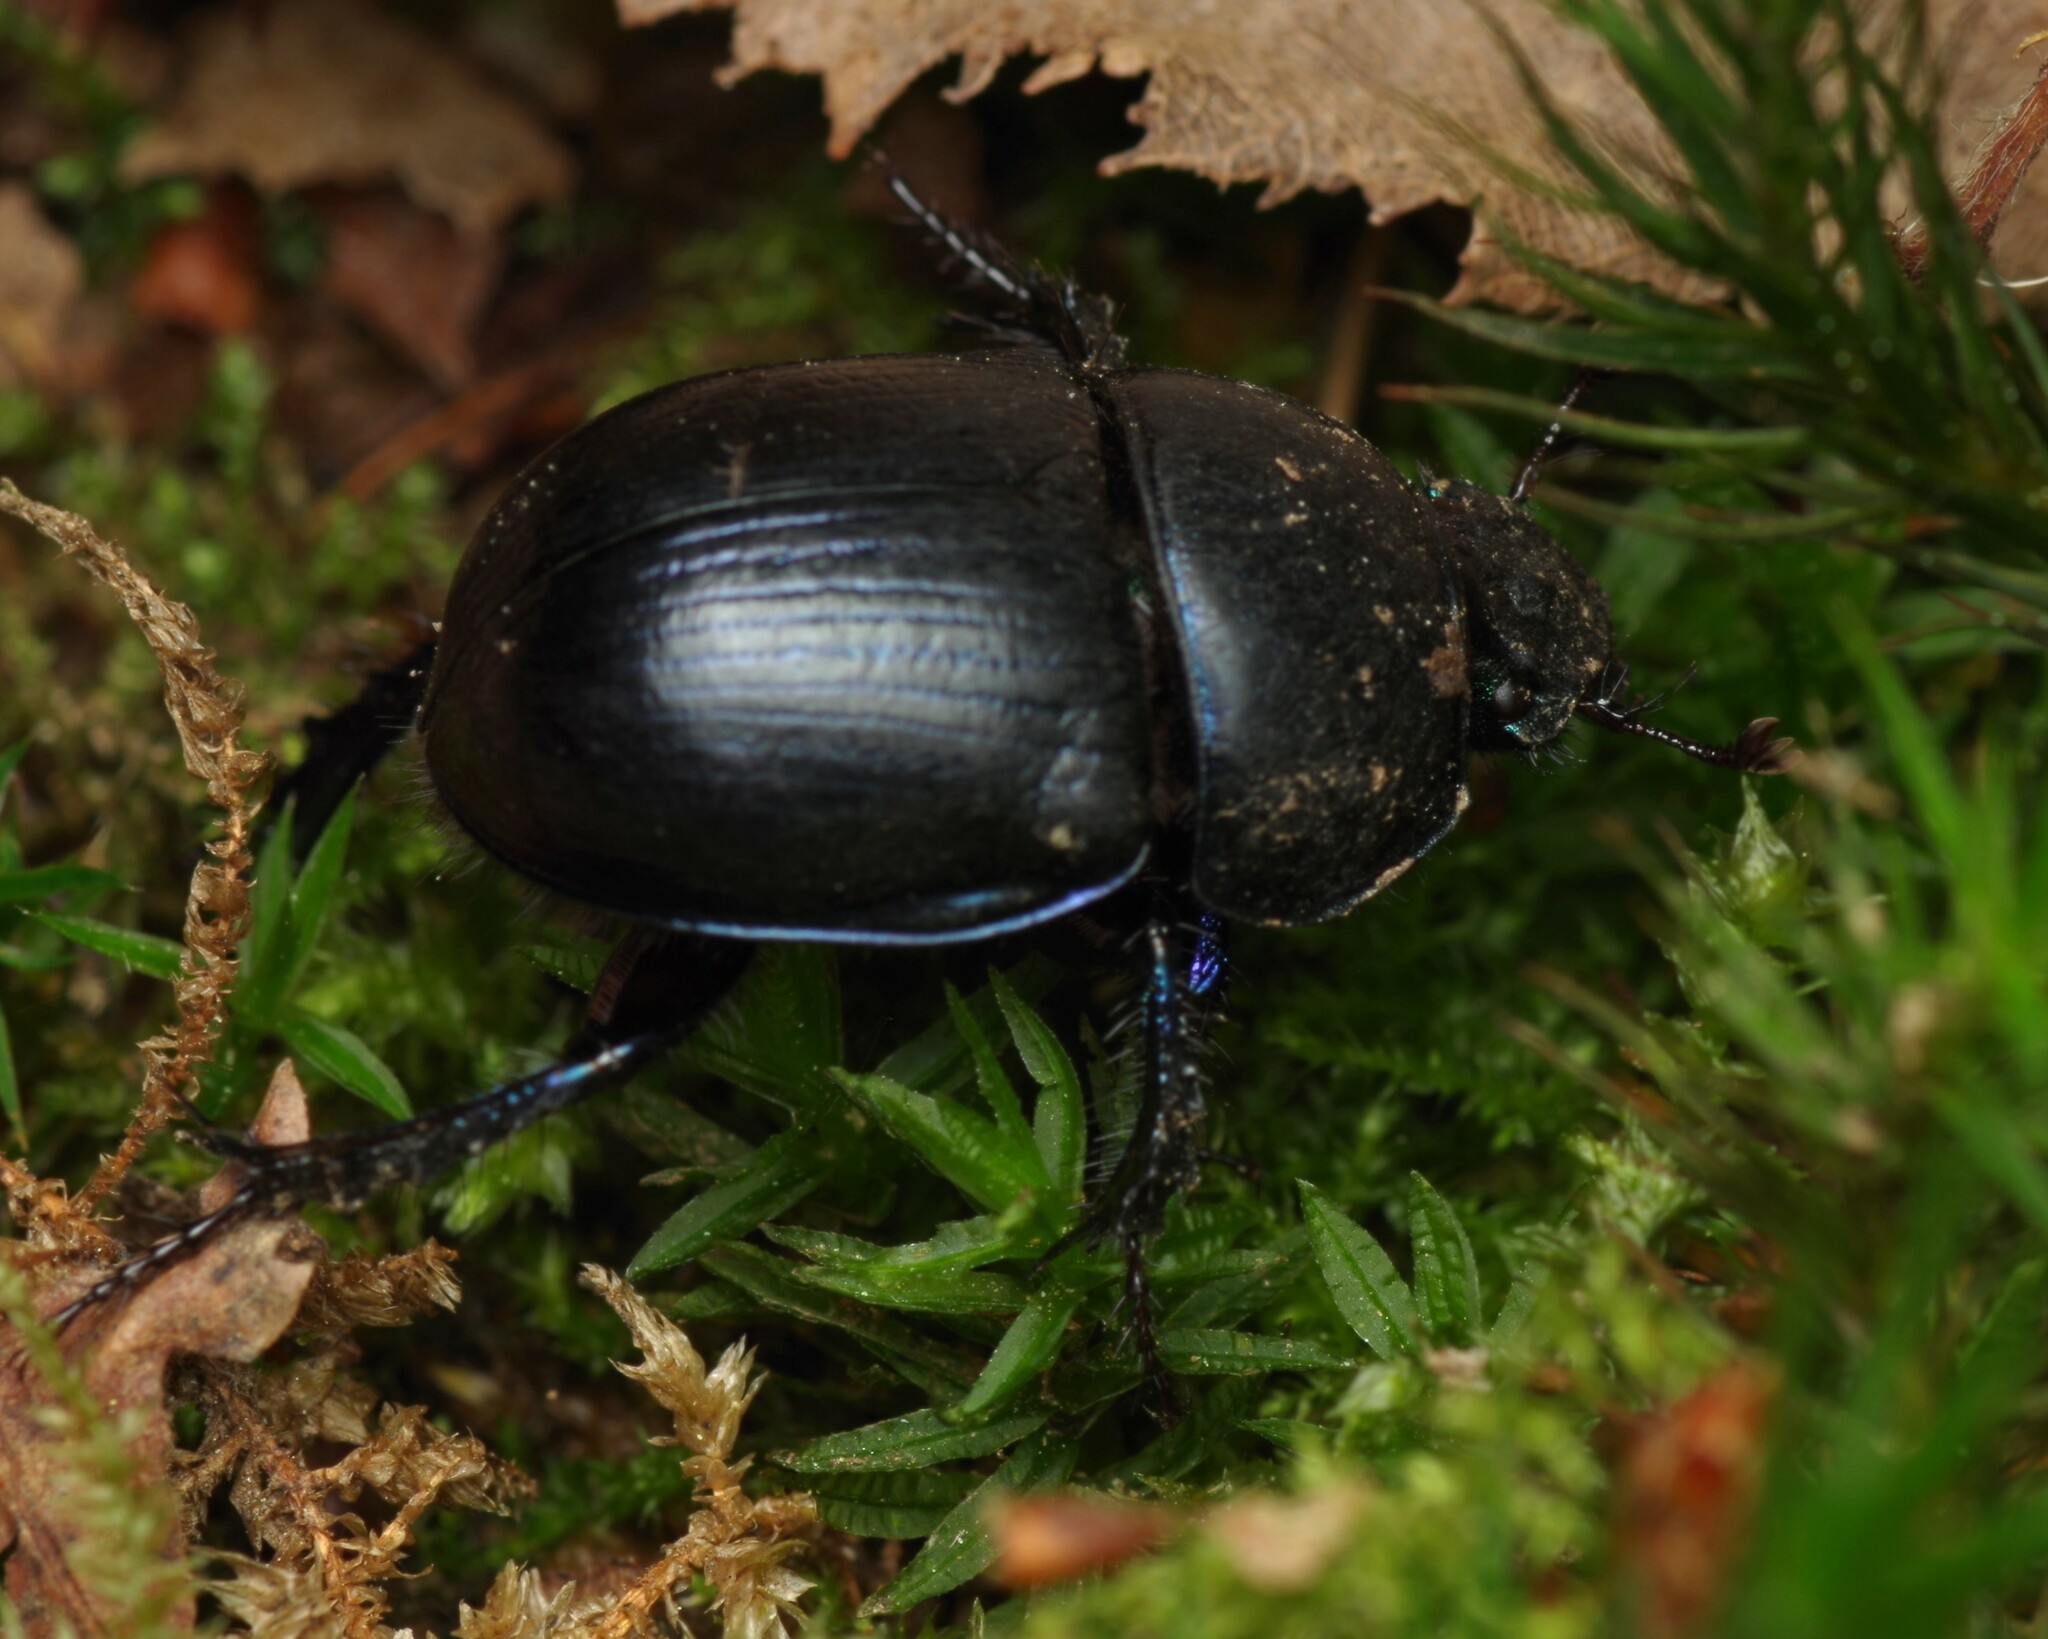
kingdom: Animalia
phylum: Arthropoda
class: Insecta
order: Coleoptera
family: Geotrupidae
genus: Anoplotrupes
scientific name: Anoplotrupes stercorosus
